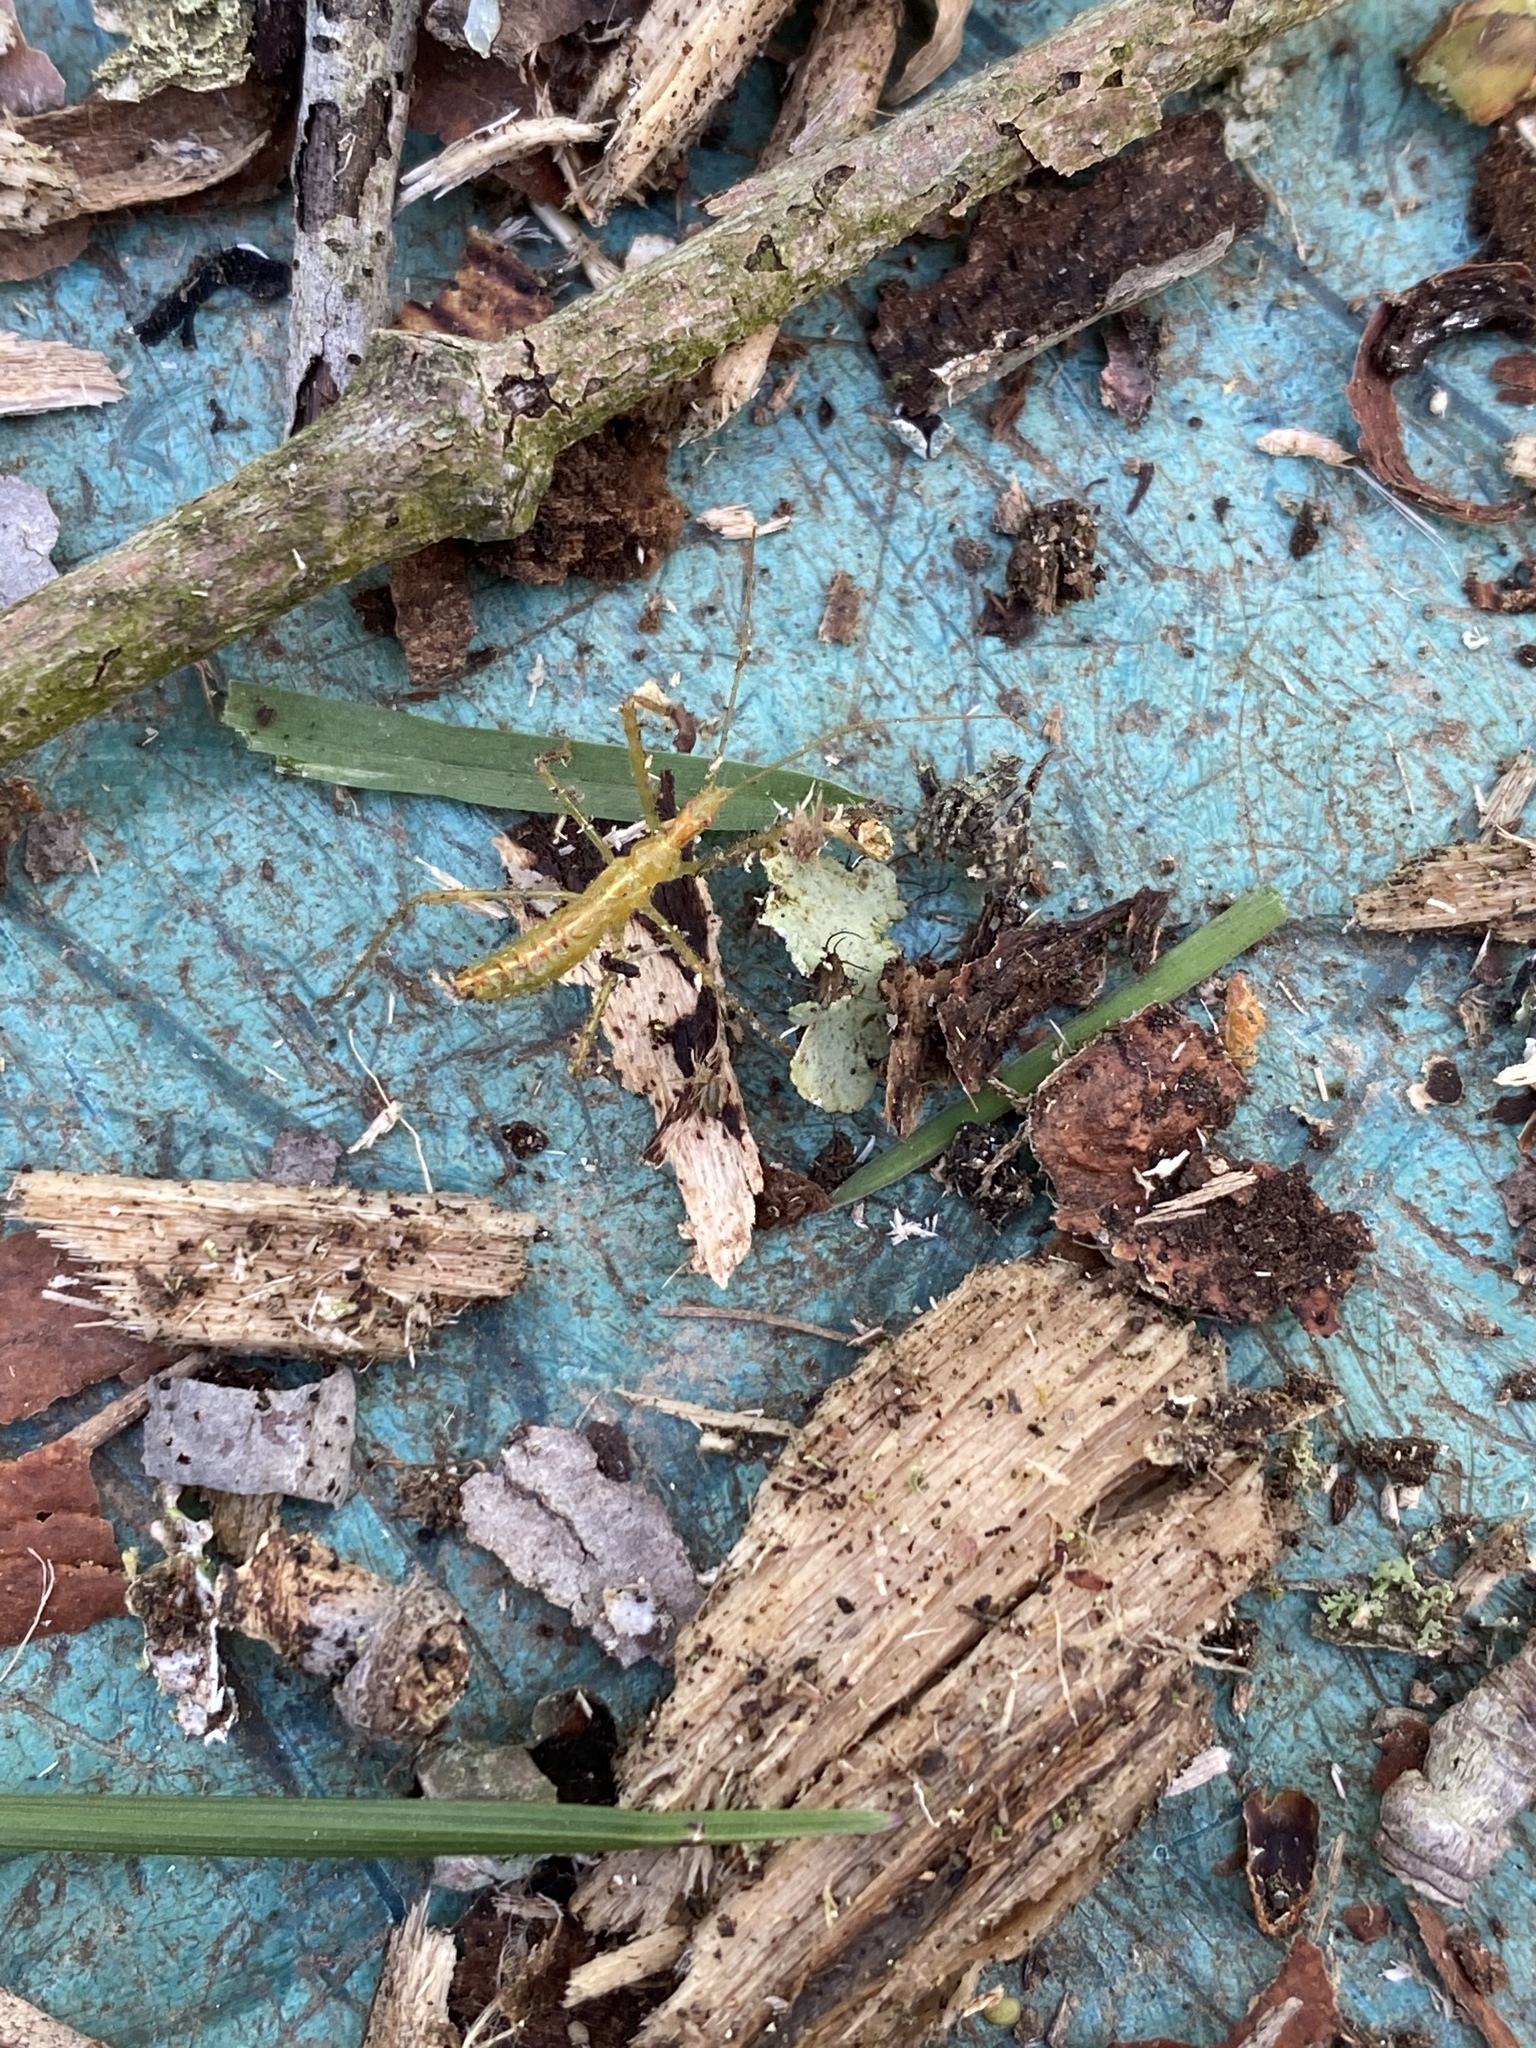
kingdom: Animalia
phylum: Arthropoda
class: Insecta
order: Hemiptera
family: Reduviidae
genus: Zelus
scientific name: Zelus luridus
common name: Pale green assassin bug
